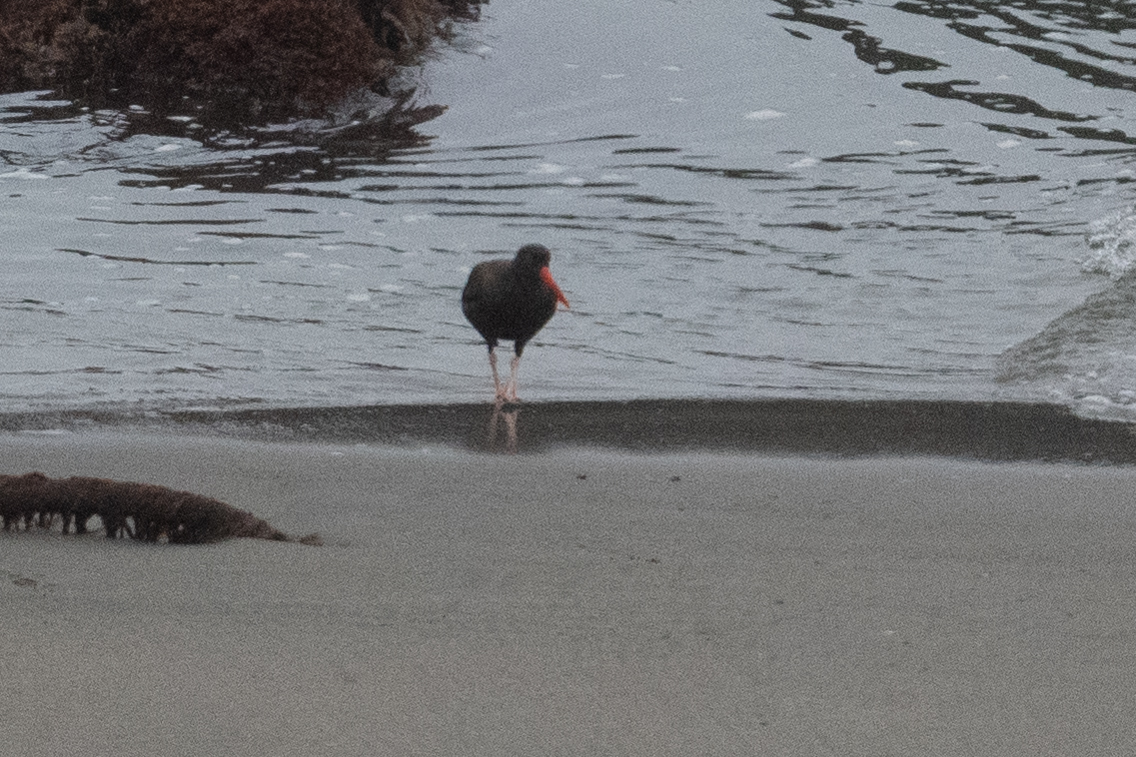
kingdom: Animalia
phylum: Chordata
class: Aves
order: Charadriiformes
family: Haematopodidae
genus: Haematopus
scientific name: Haematopus bachmani
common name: Black oystercatcher
